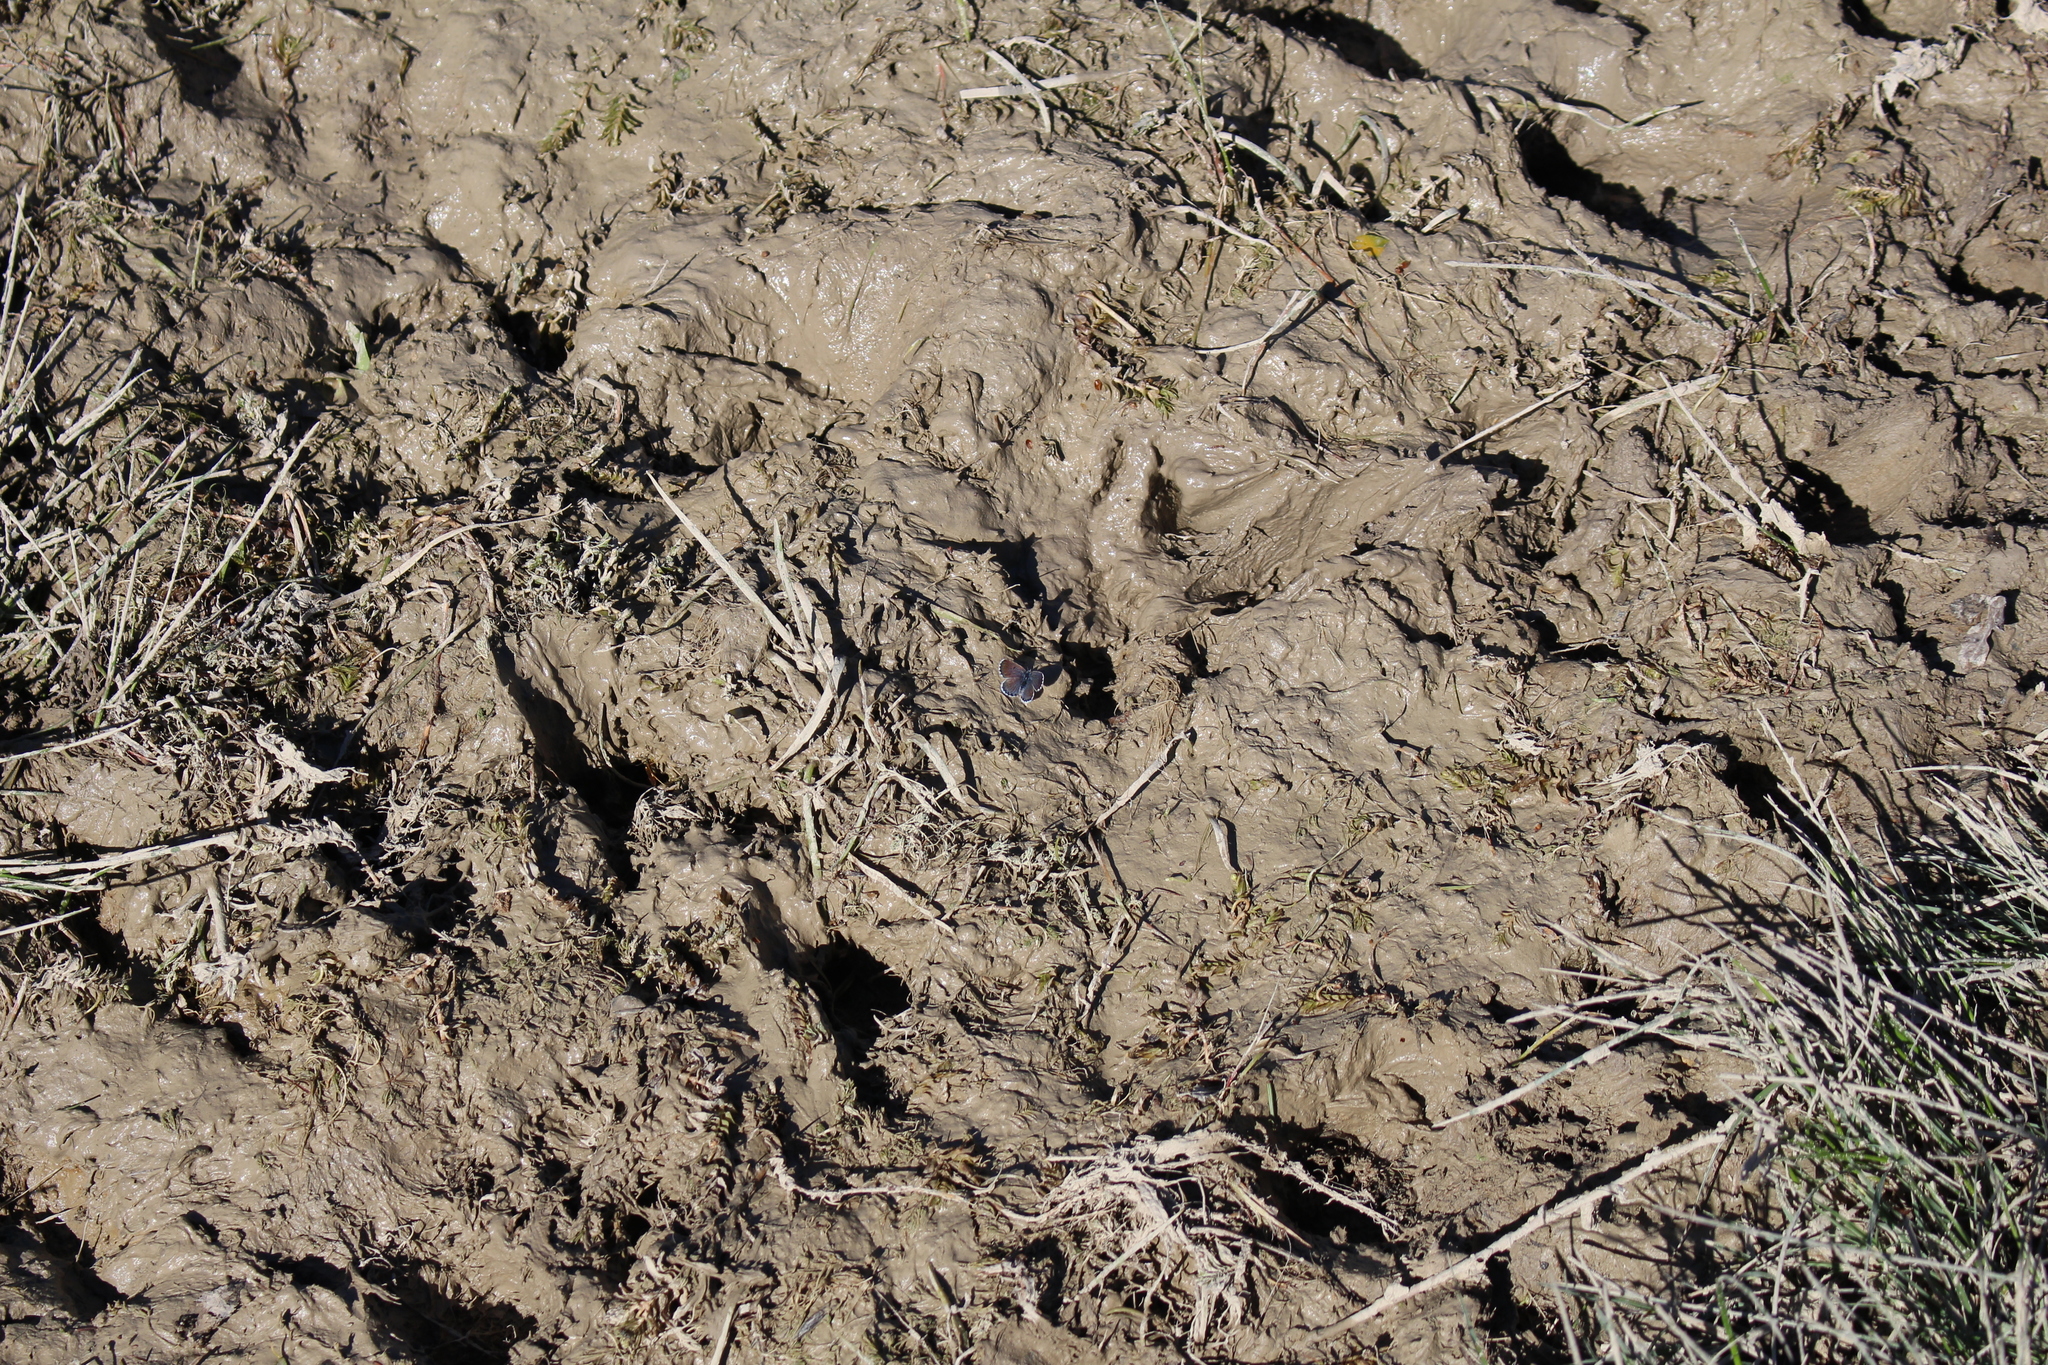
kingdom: Animalia
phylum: Arthropoda
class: Insecta
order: Lepidoptera
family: Lycaenidae
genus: Pseudophilotes
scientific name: Pseudophilotes baton
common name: Baton blue
